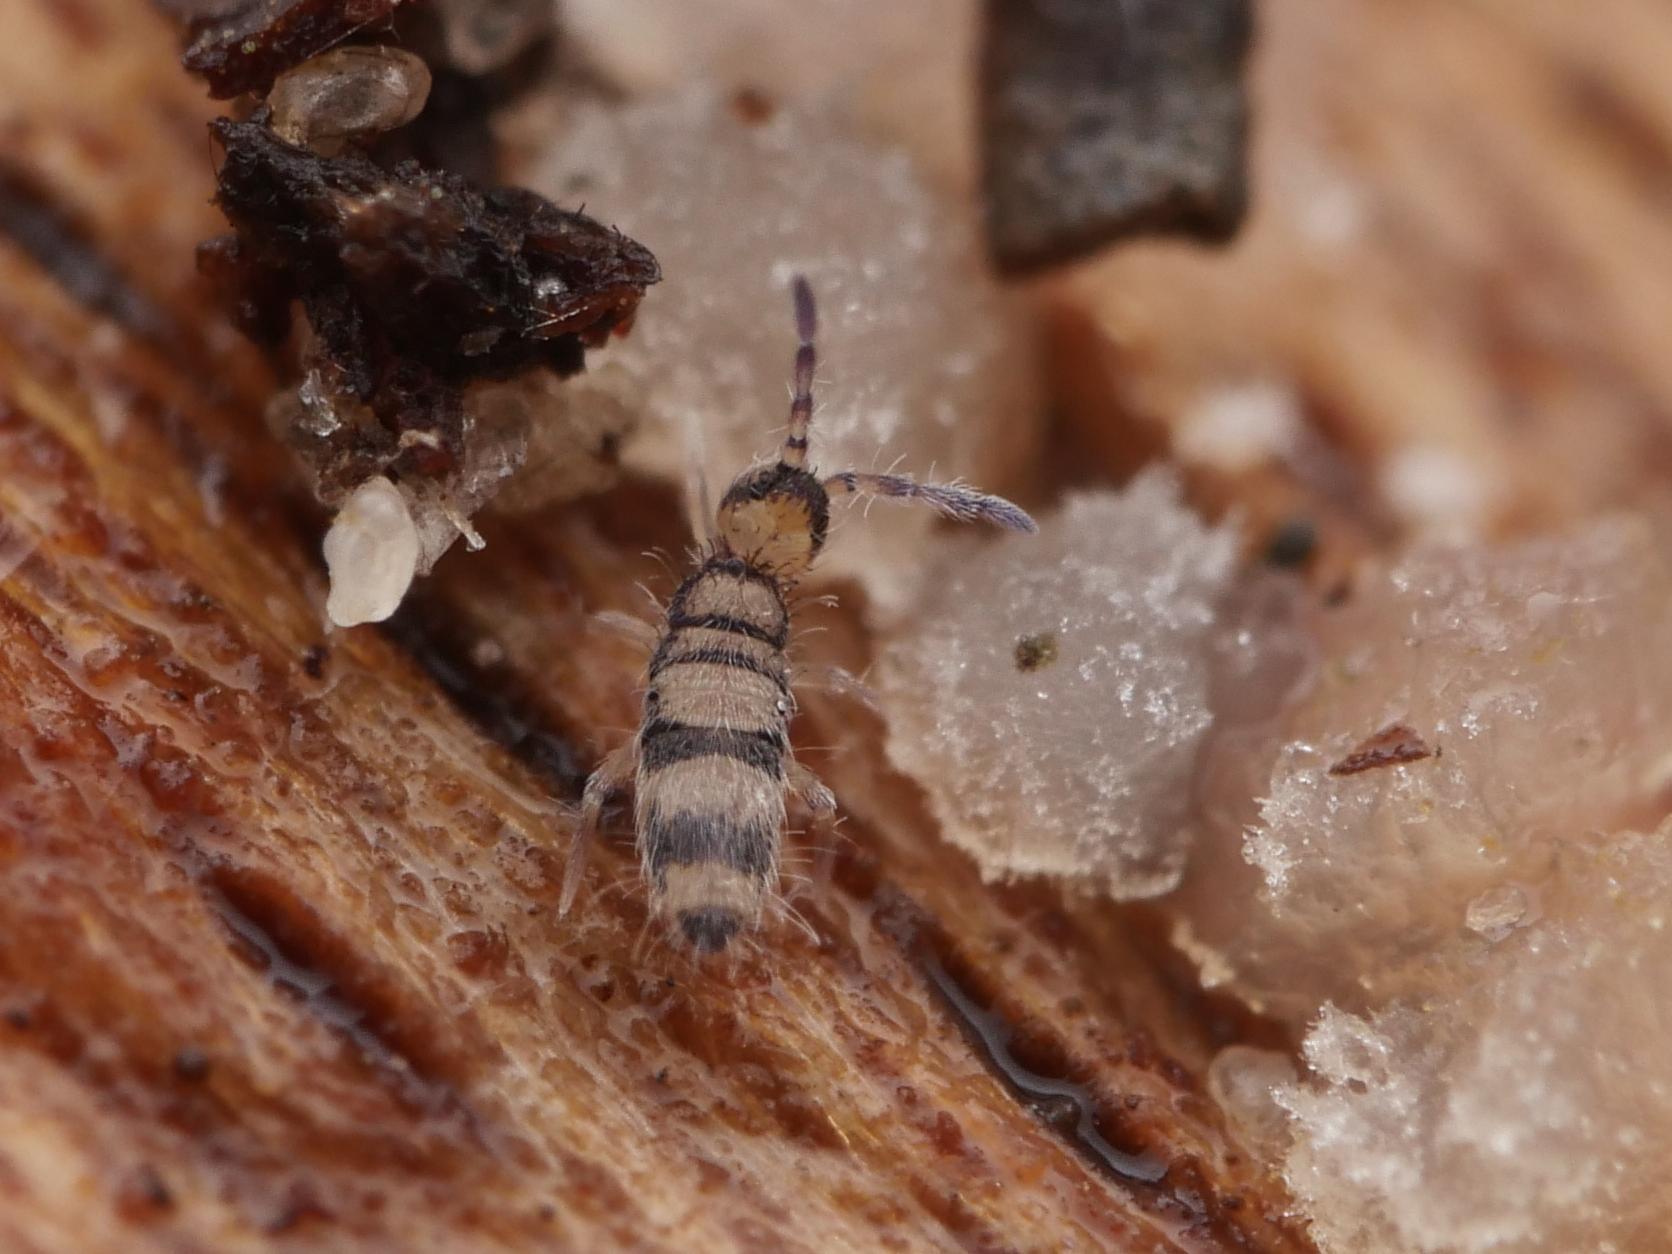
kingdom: Animalia
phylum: Arthropoda
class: Collembola
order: Entomobryomorpha
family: Entomobryidae
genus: Entomobrya
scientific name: Entomobrya corticalis
